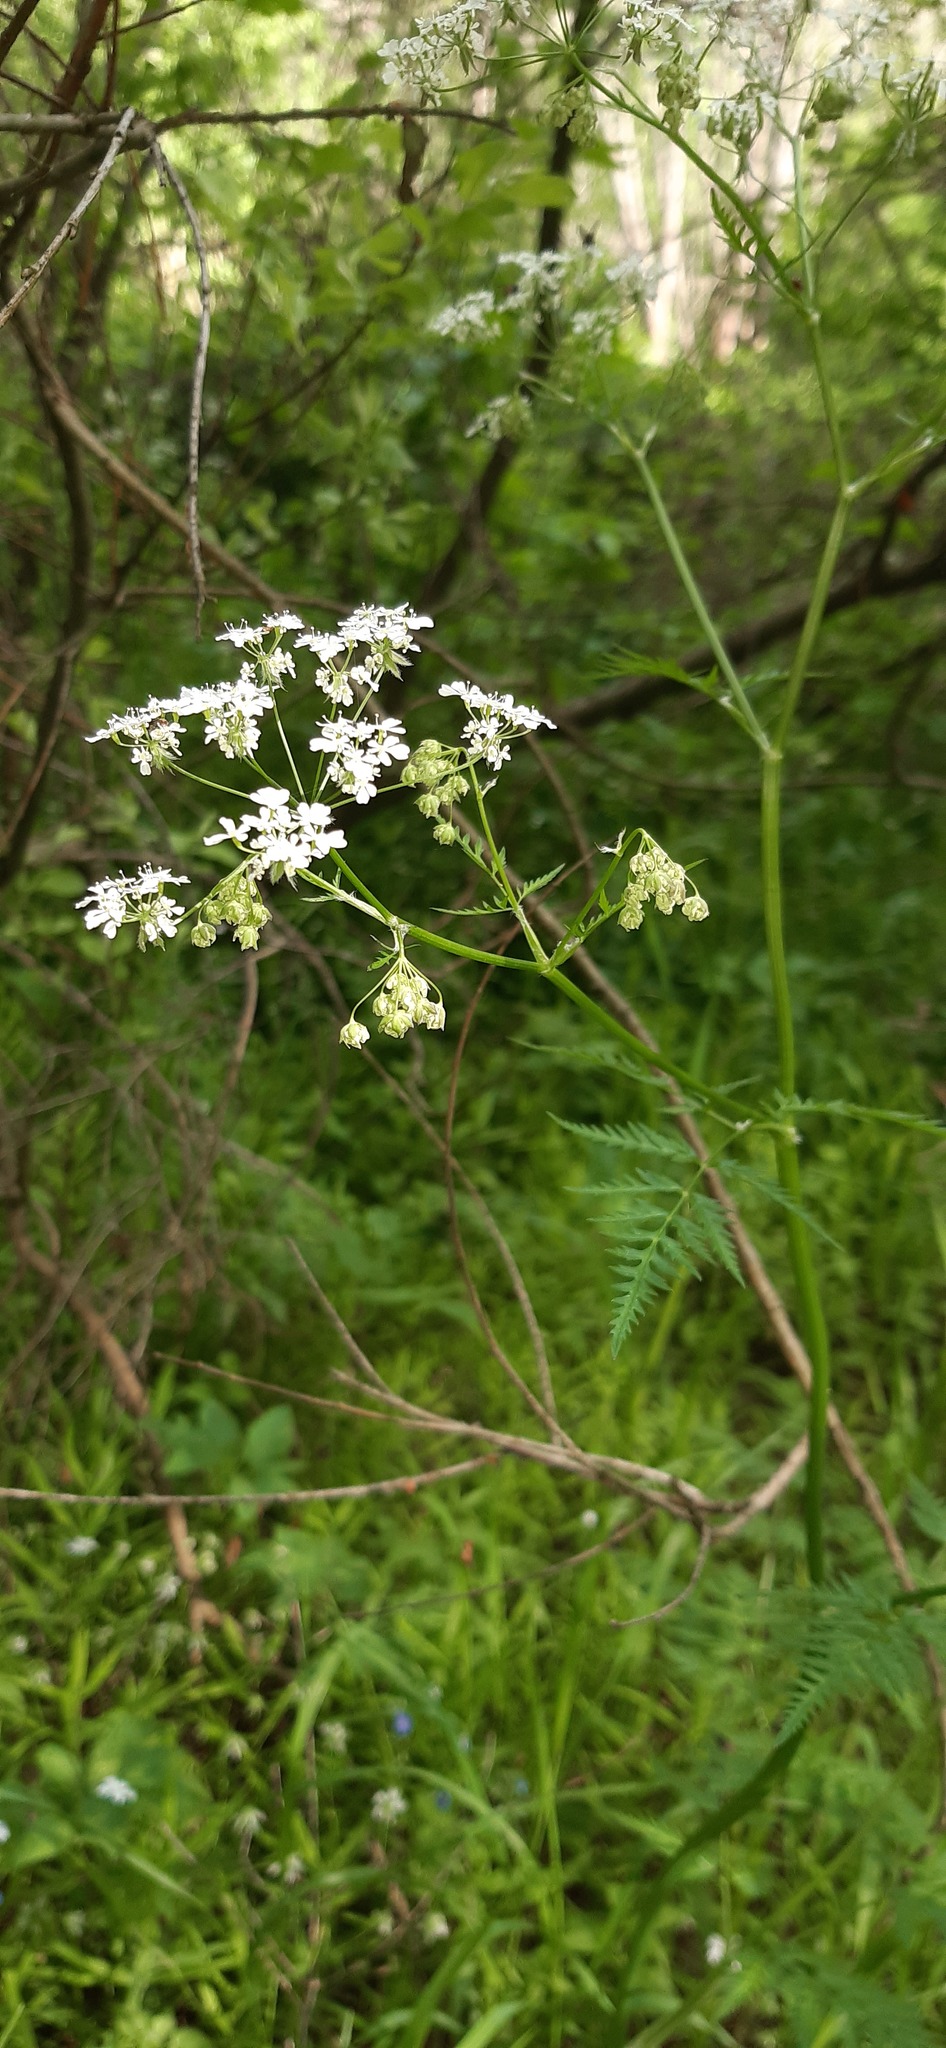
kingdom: Plantae
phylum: Tracheophyta
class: Magnoliopsida
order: Apiales
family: Apiaceae
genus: Anthriscus
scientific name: Anthriscus sylvestris
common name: Cow parsley
